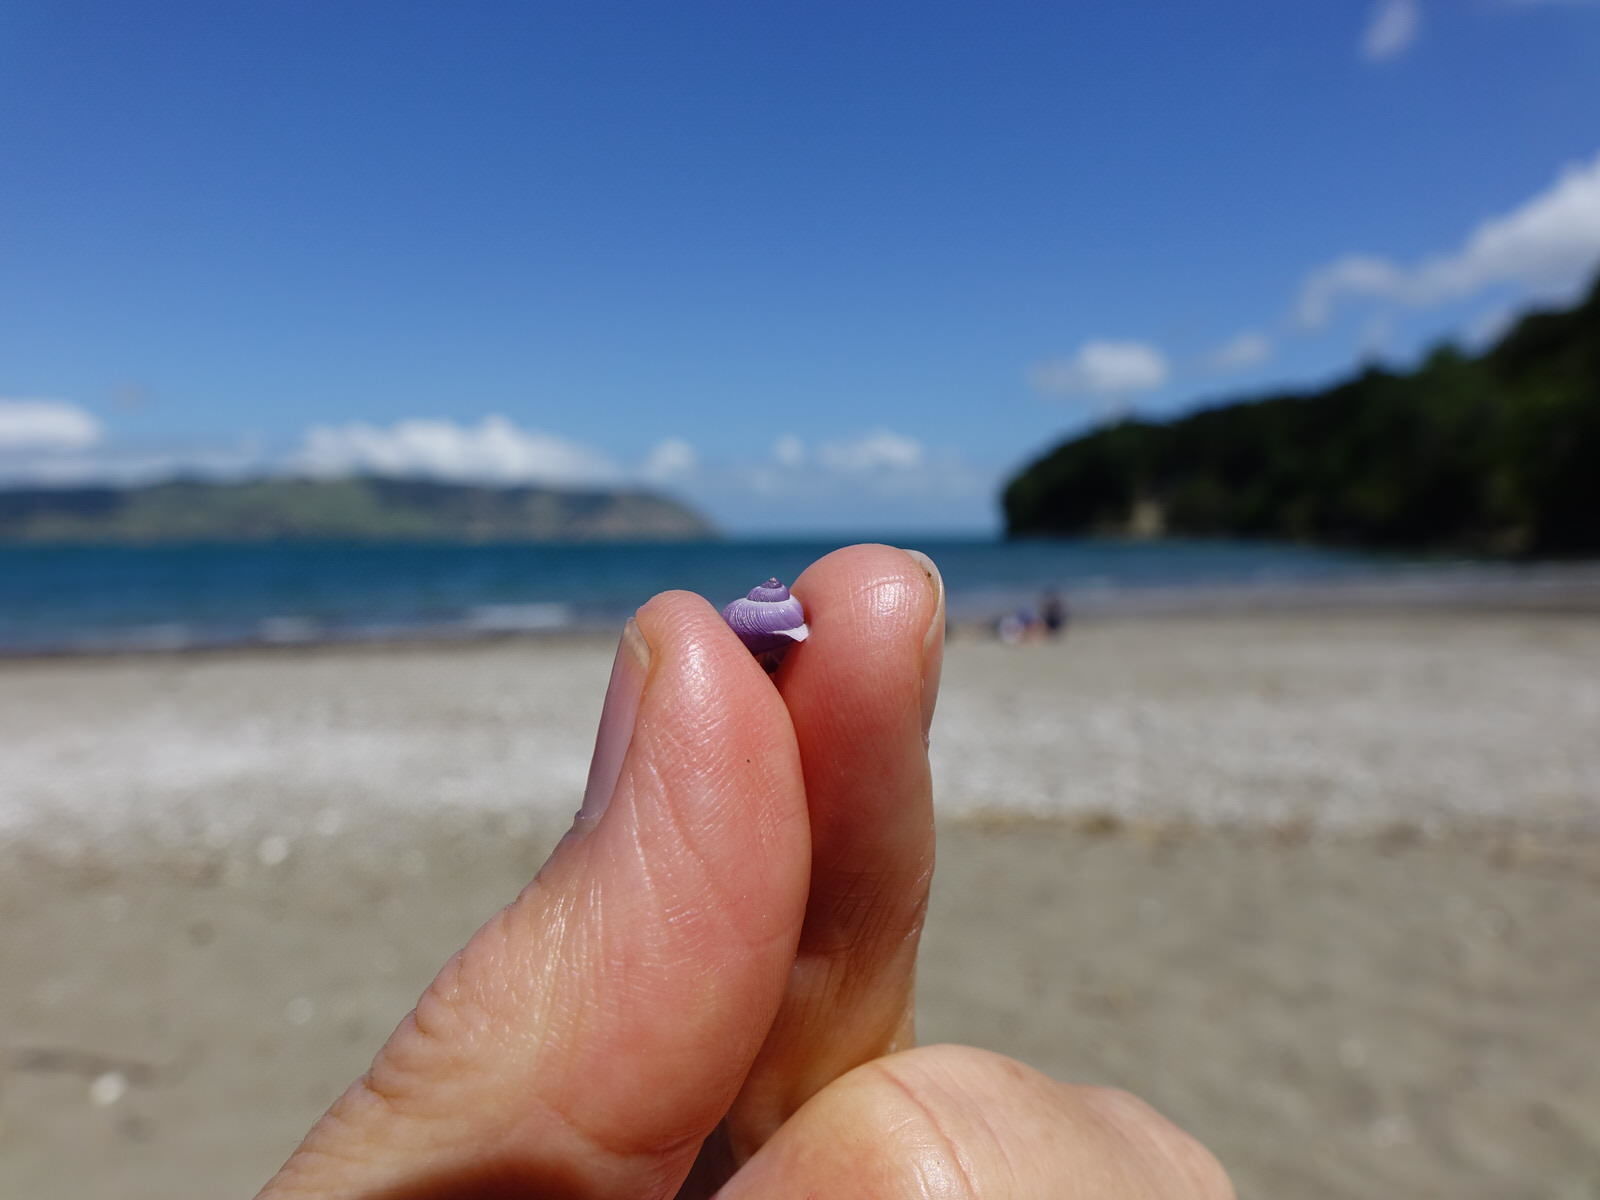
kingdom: Animalia
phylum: Mollusca
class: Gastropoda
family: Epitoniidae
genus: Janthina
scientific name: Janthina exigua
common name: Dwarf janthina
